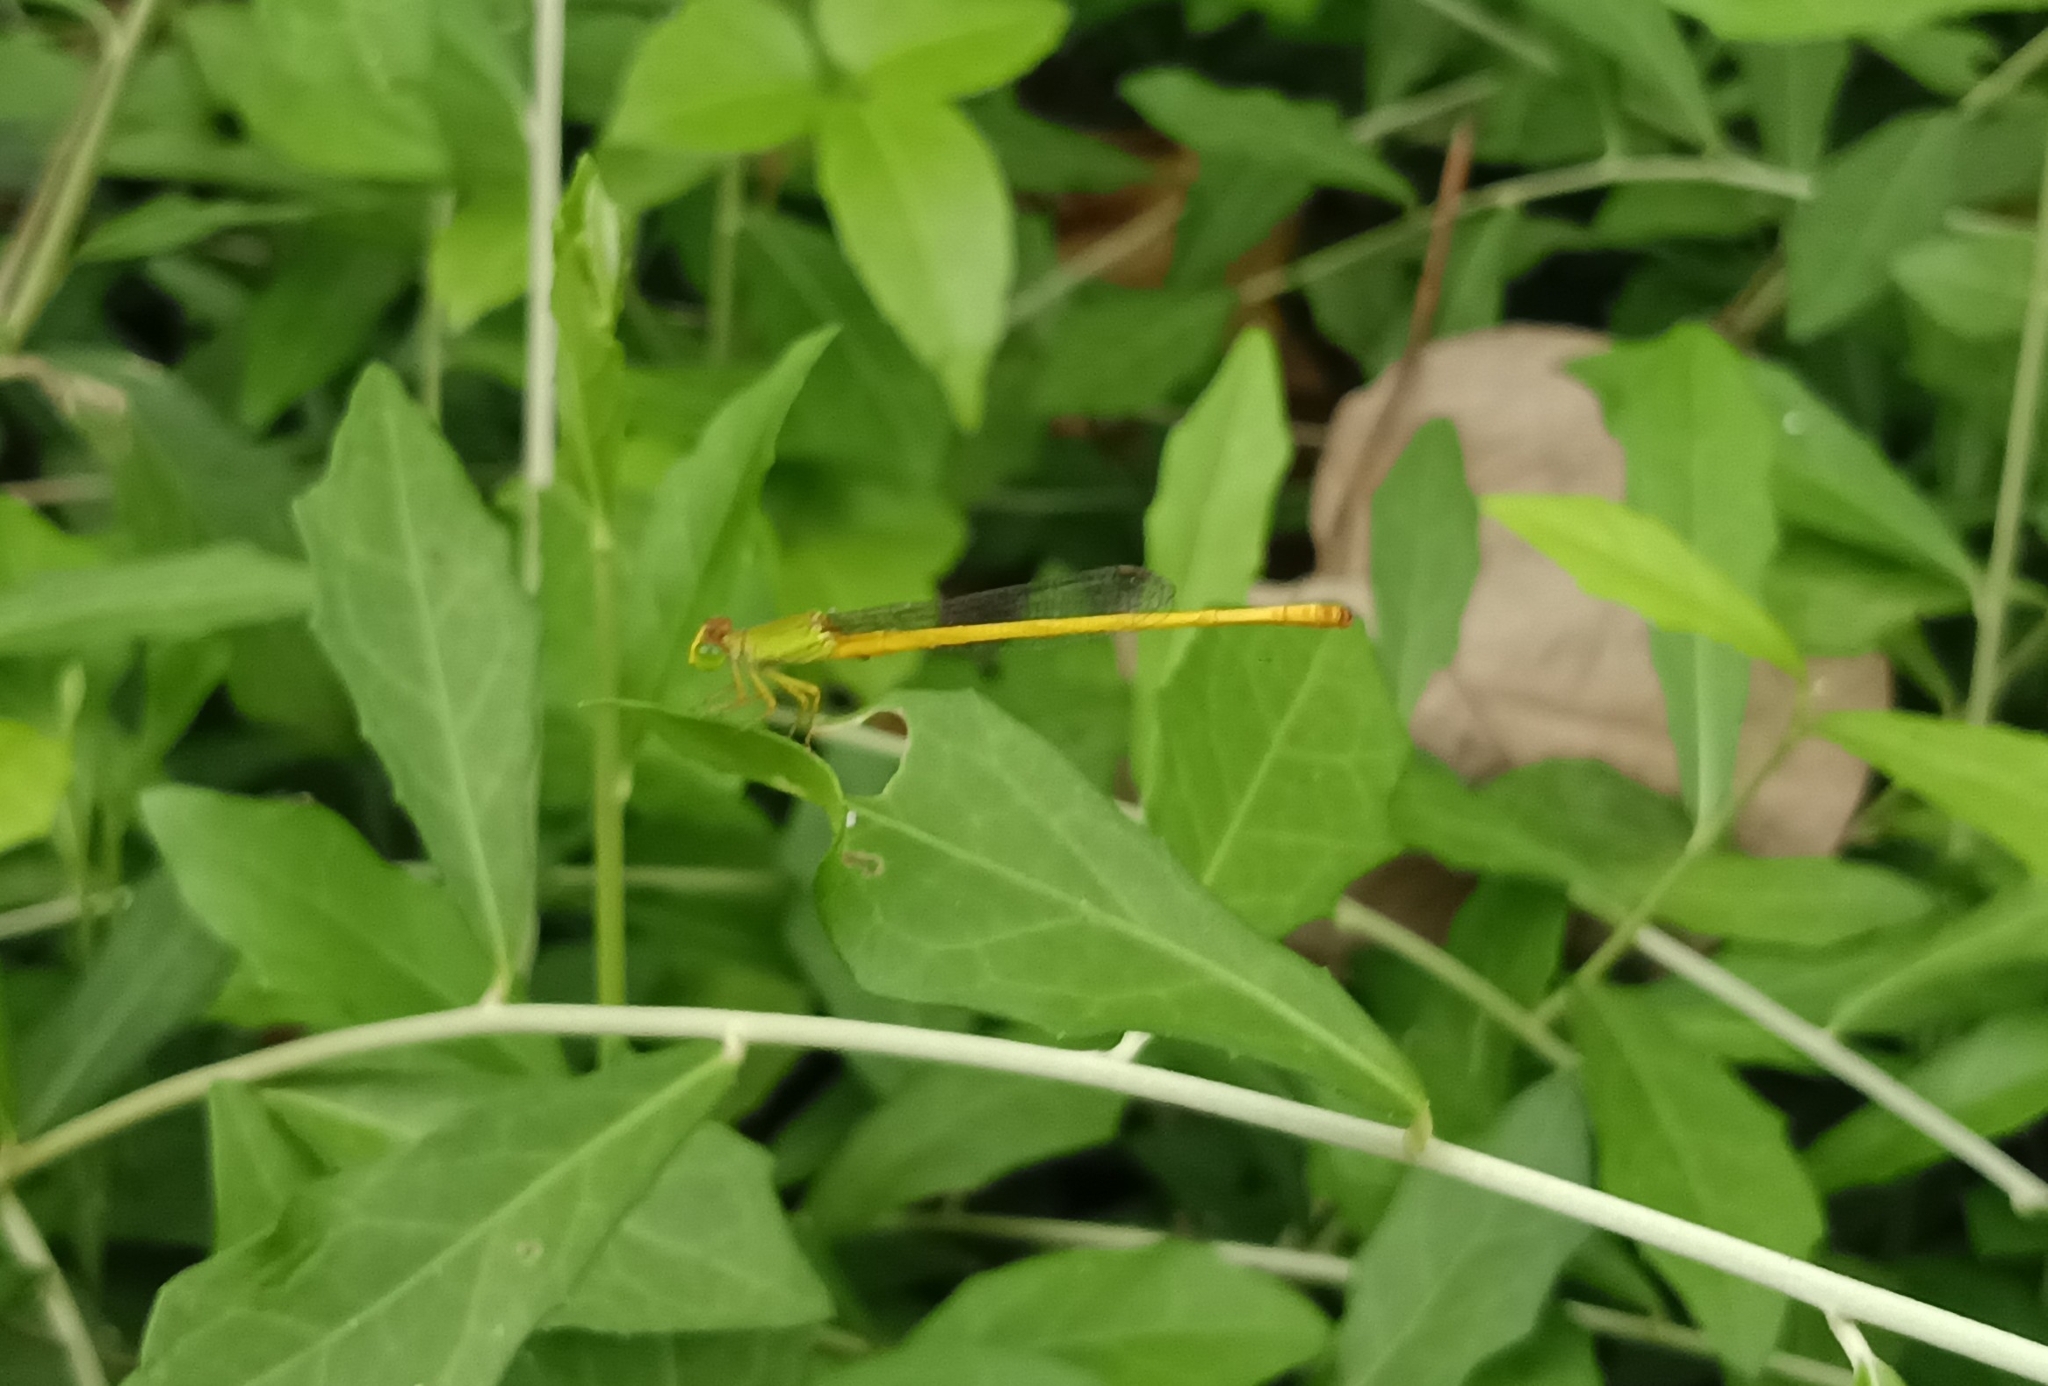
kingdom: Animalia
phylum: Arthropoda
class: Insecta
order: Odonata
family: Coenagrionidae
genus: Ceriagrion
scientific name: Ceriagrion coromandelianum
